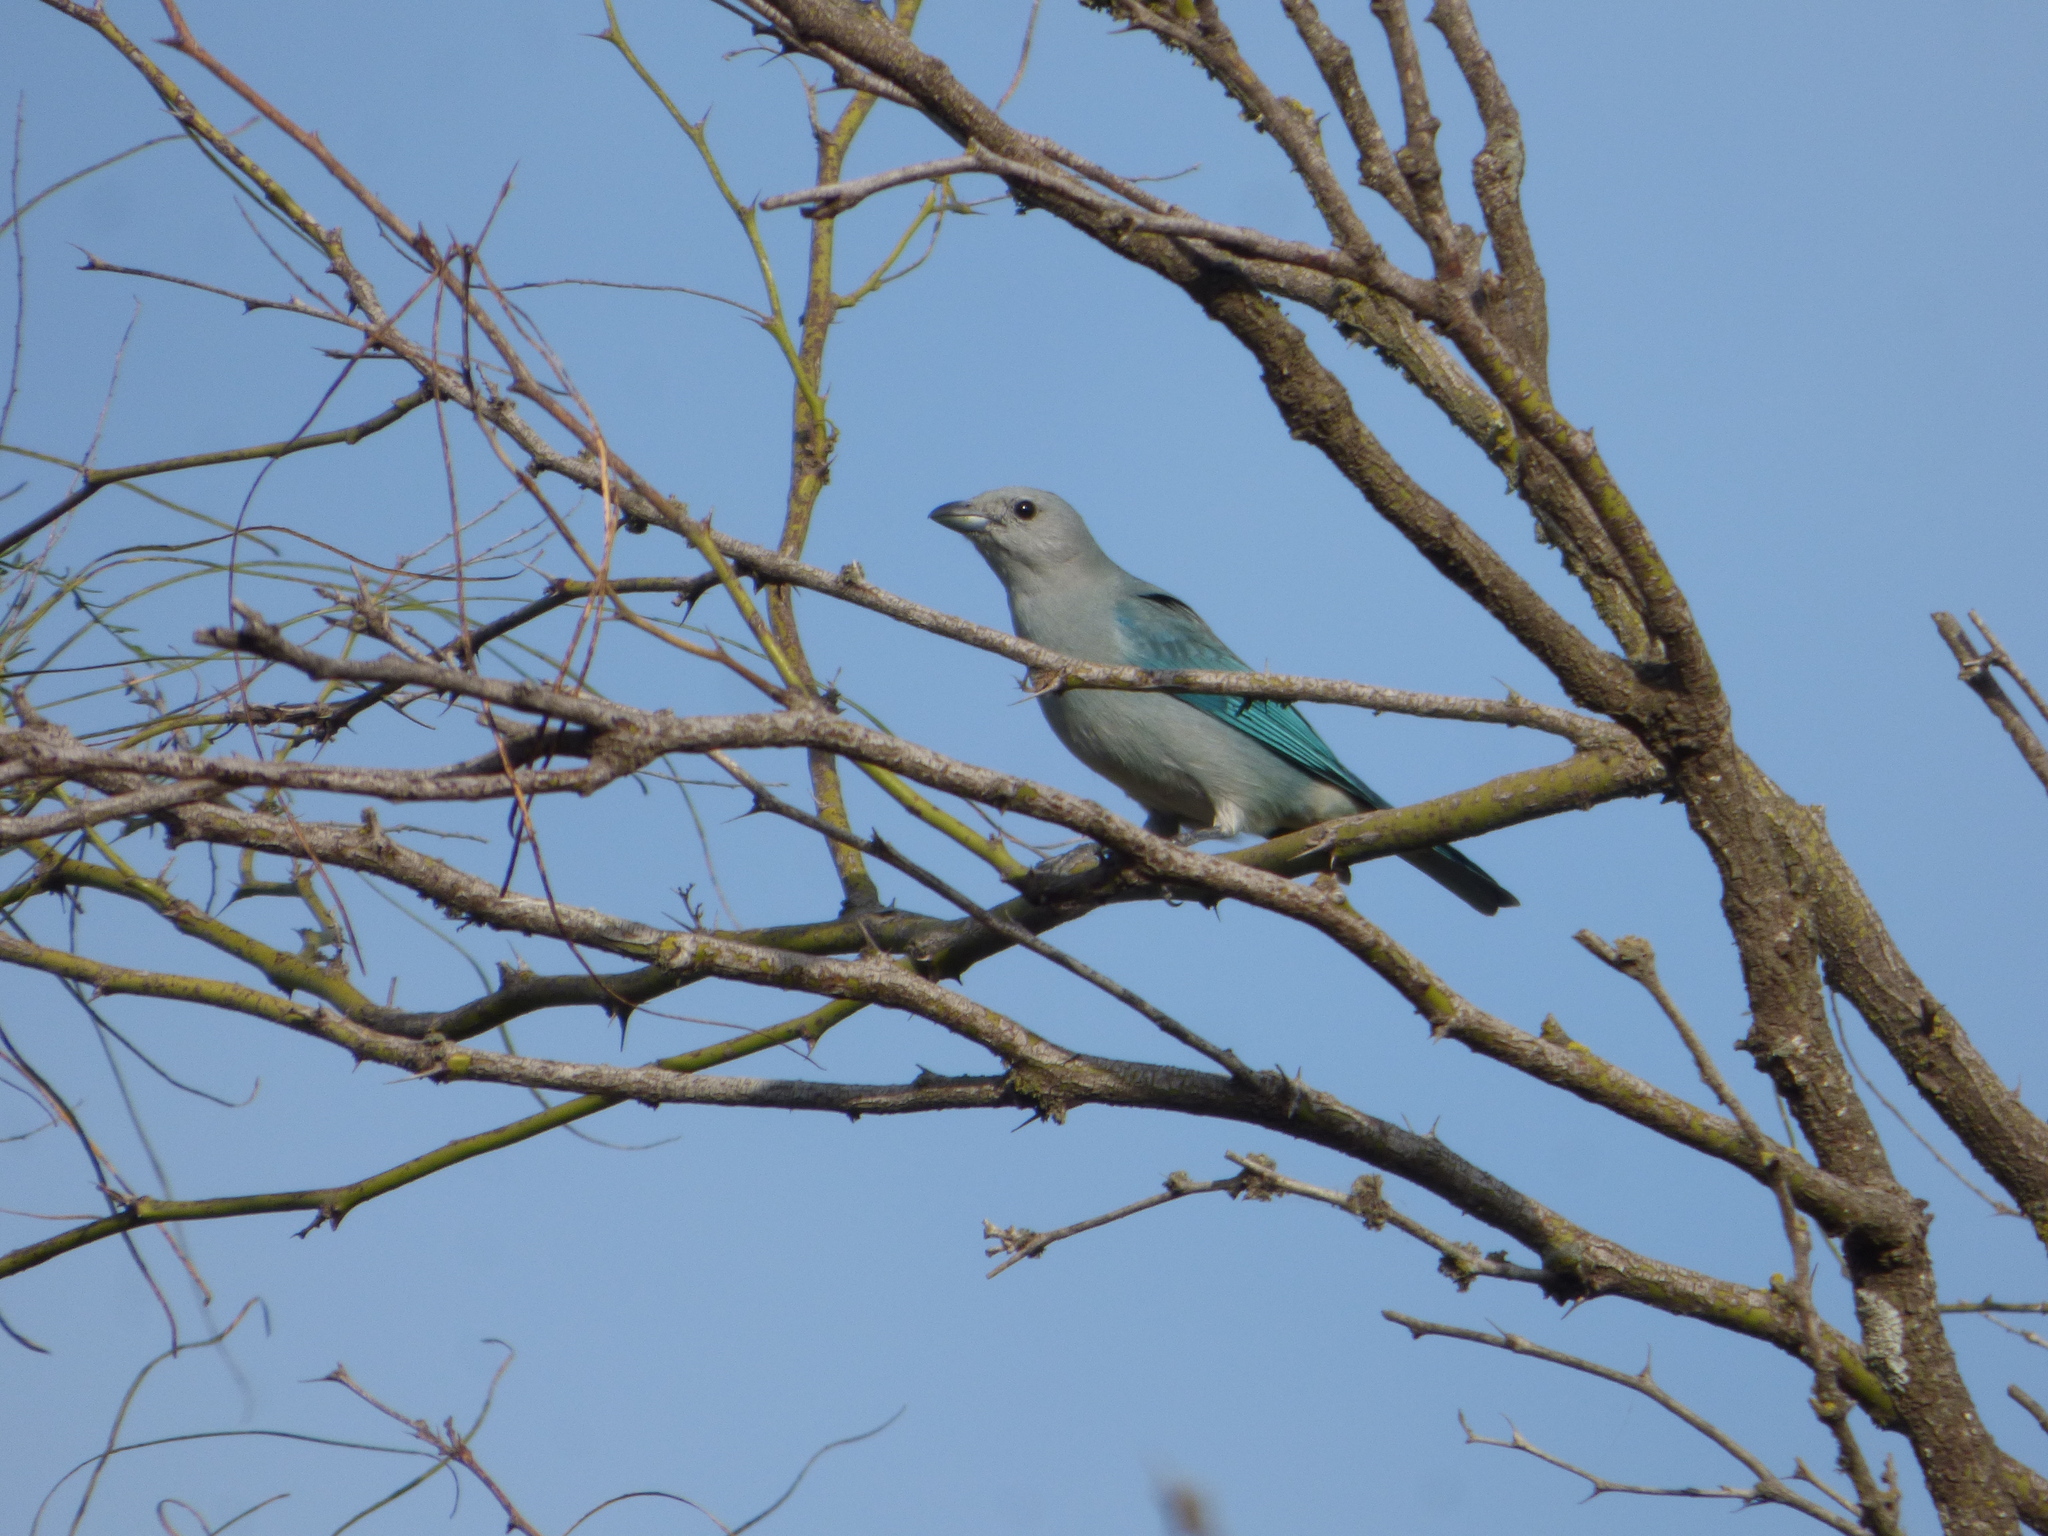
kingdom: Animalia
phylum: Chordata
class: Aves
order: Passeriformes
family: Thraupidae
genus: Thraupis
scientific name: Thraupis sayaca
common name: Sayaca tanager
